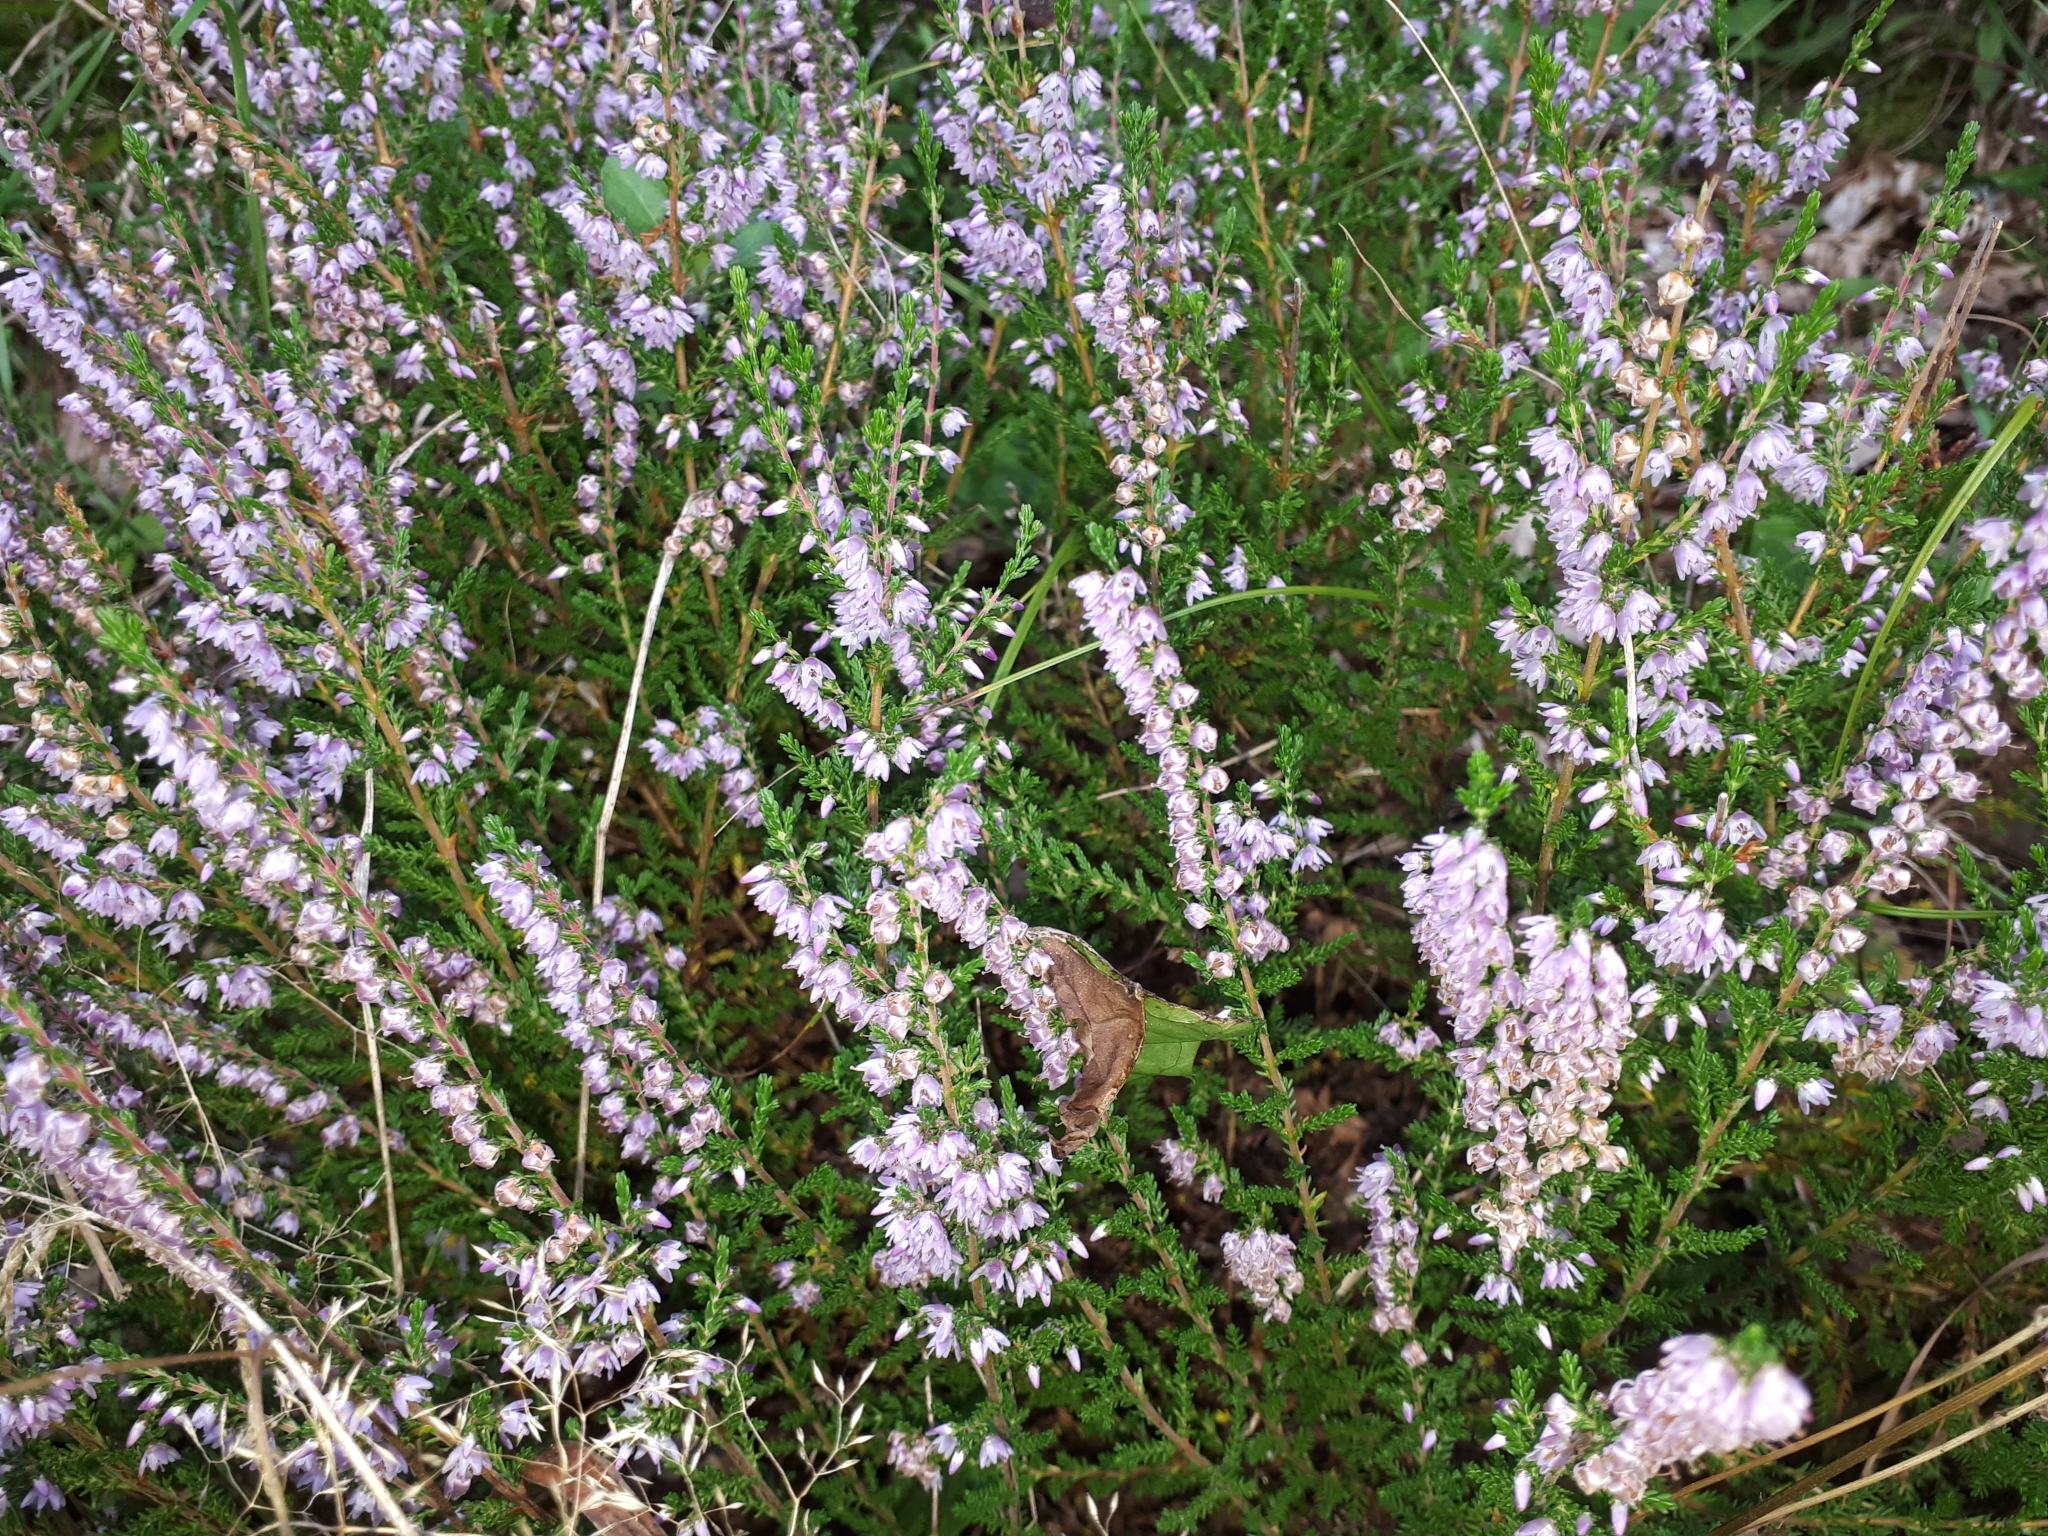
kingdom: Plantae
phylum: Tracheophyta
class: Magnoliopsida
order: Ericales
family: Ericaceae
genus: Calluna
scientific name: Calluna vulgaris
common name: Heather
